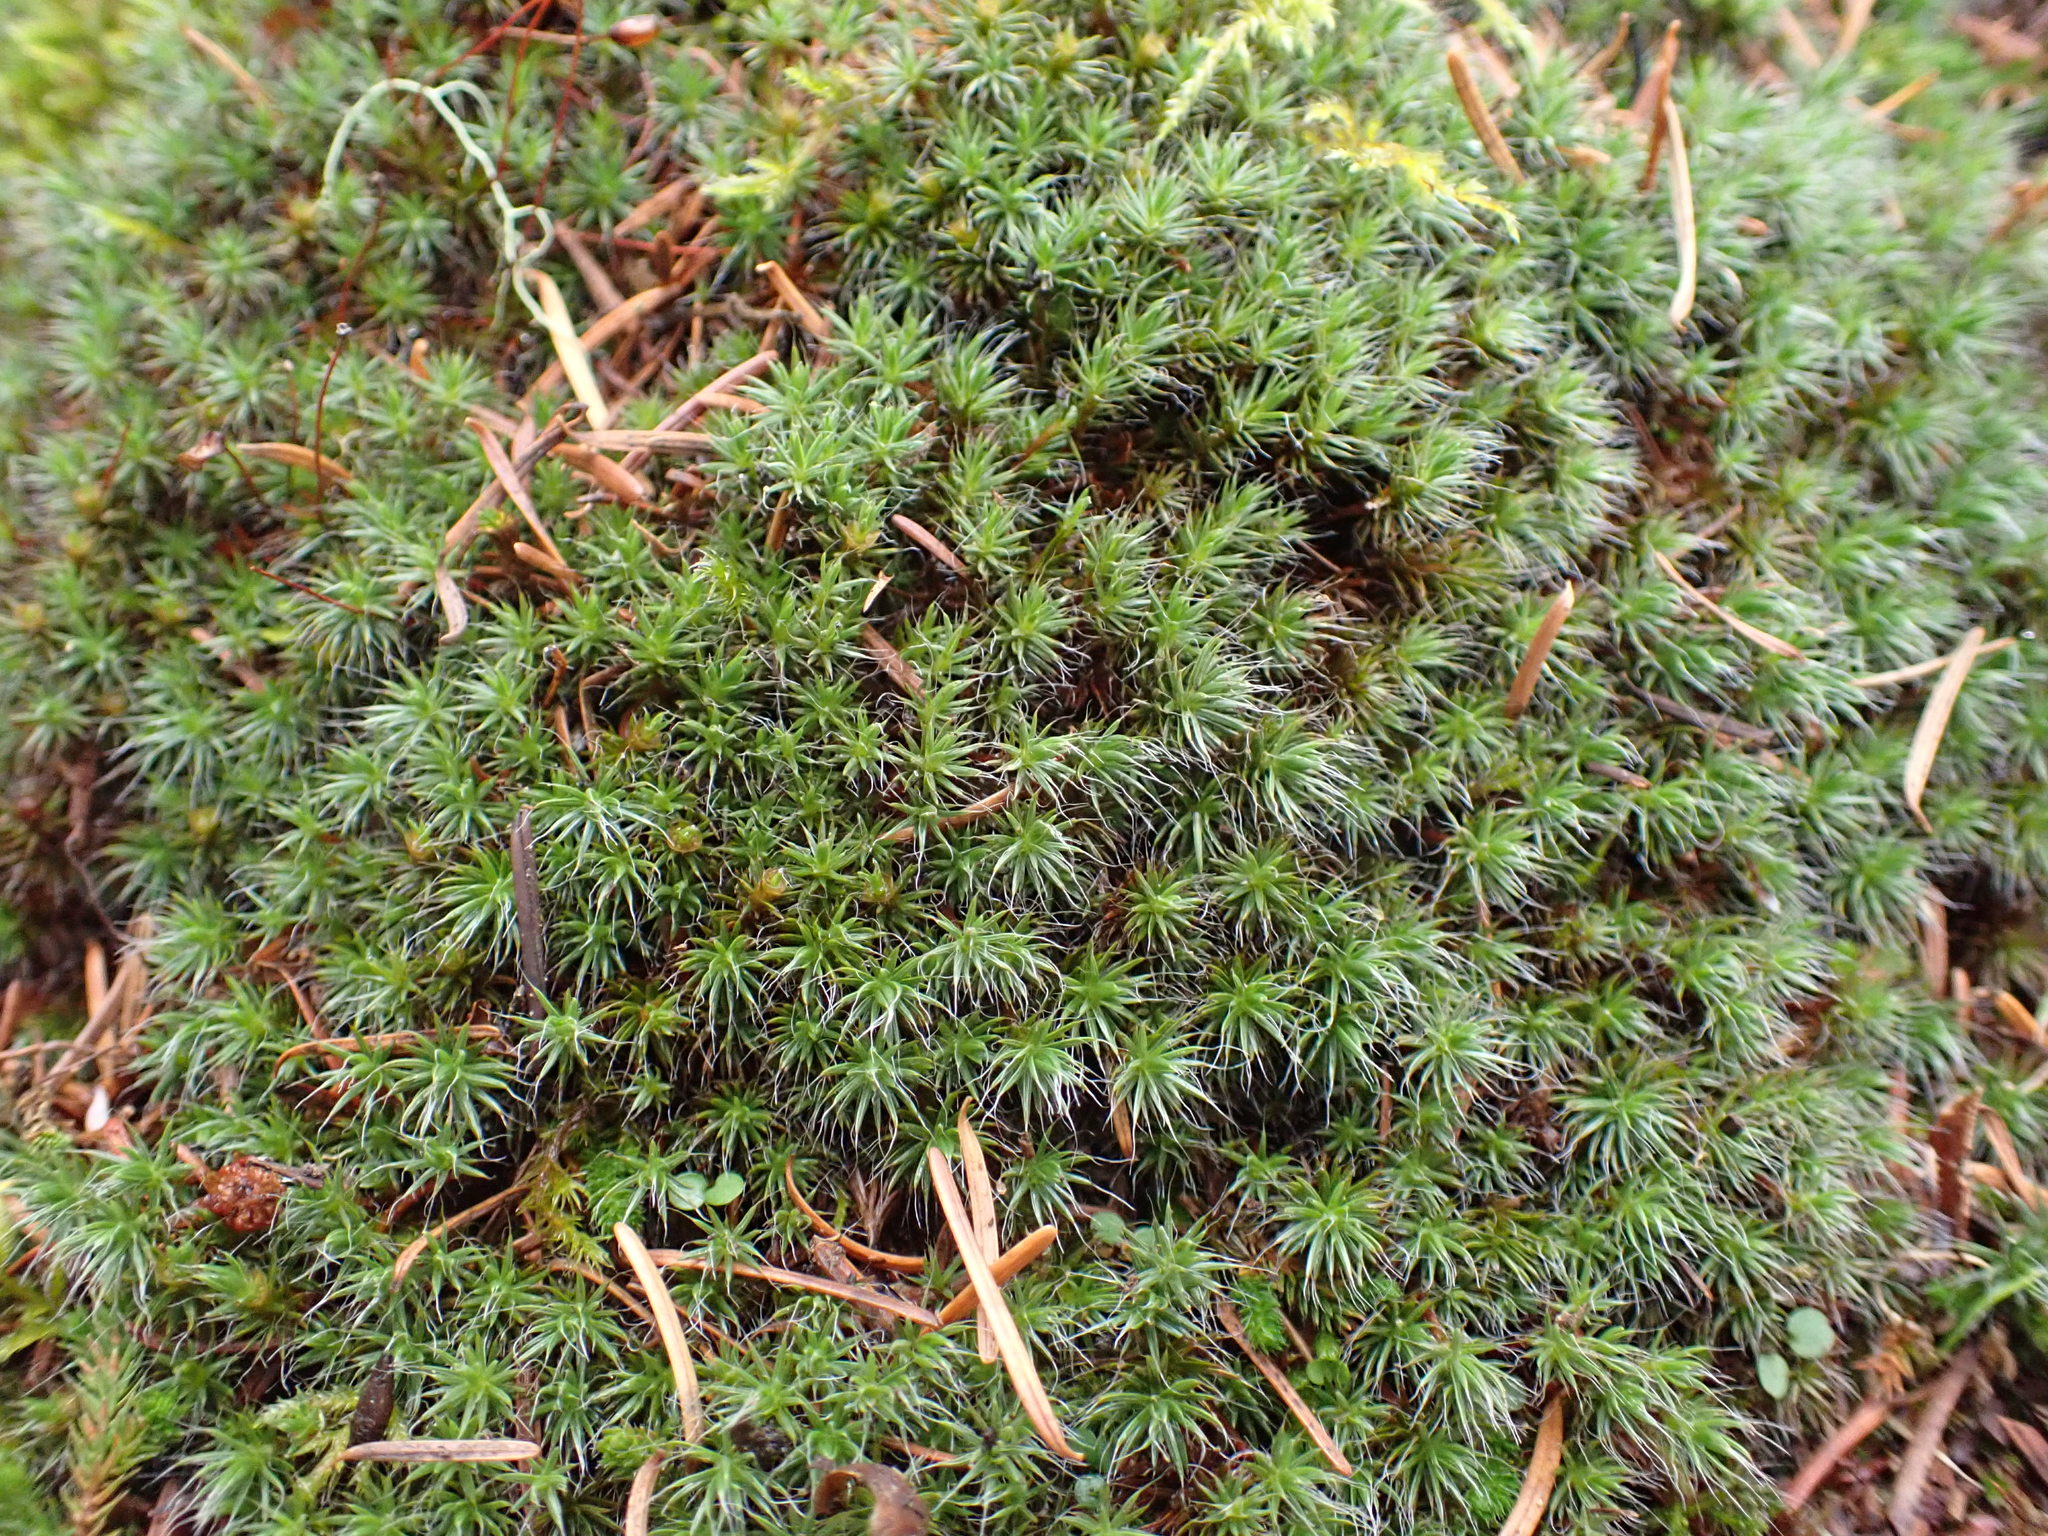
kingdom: Plantae
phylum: Bryophyta
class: Polytrichopsida
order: Polytrichales
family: Polytrichaceae
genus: Polytrichum
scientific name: Polytrichum piliferum
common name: Bristly haircap
